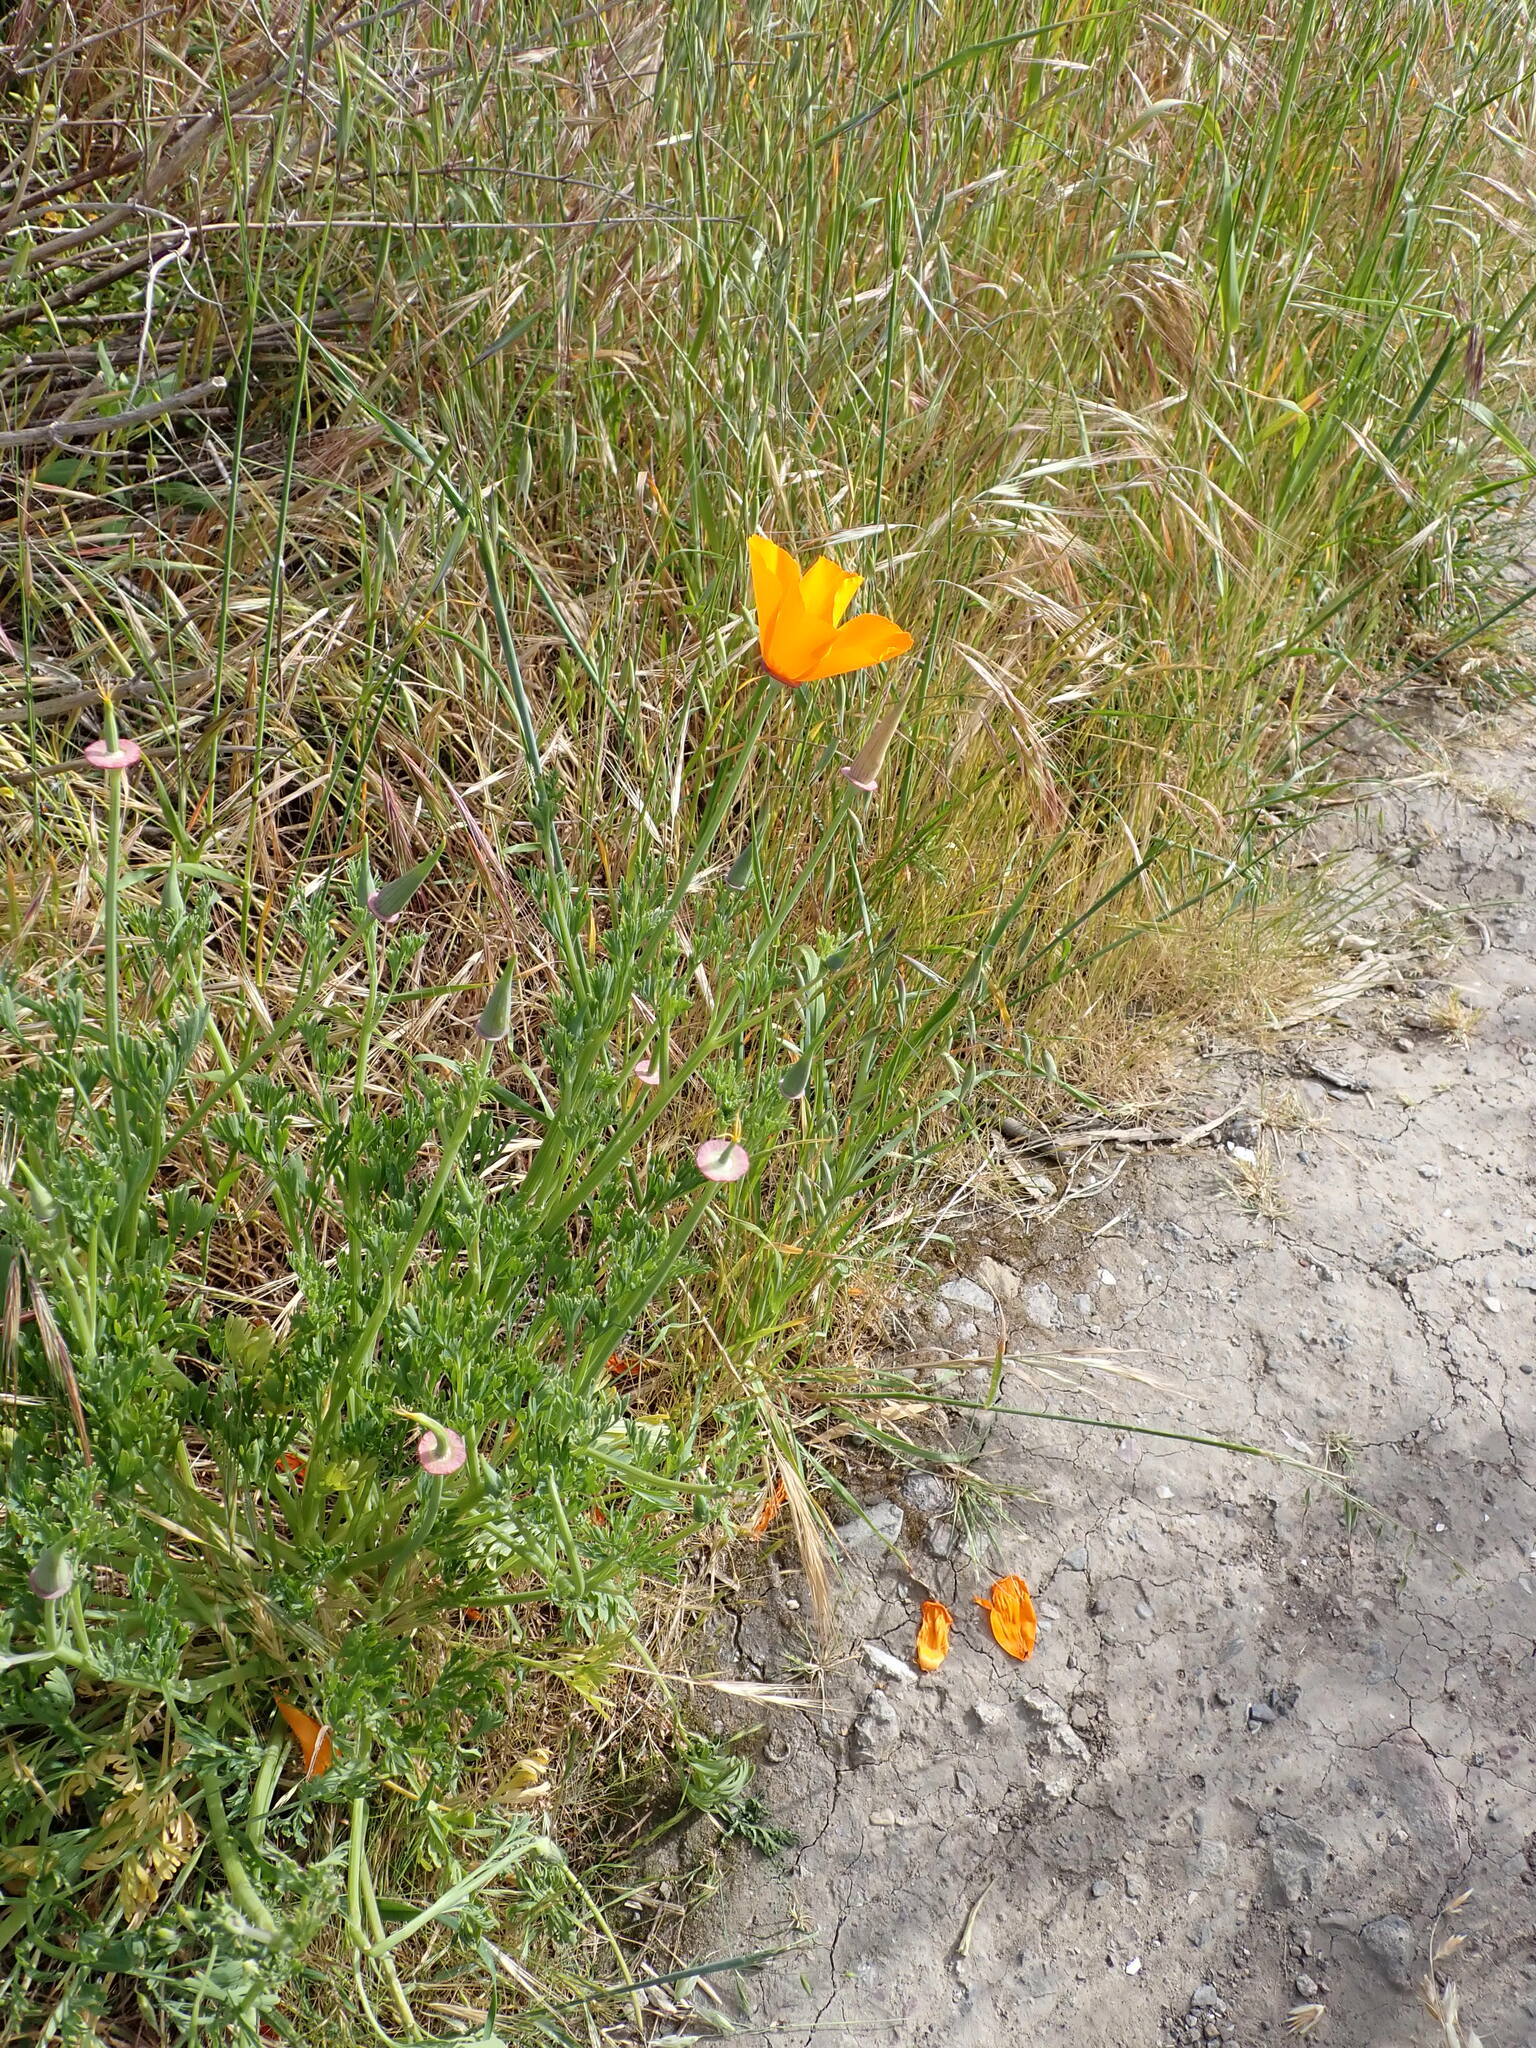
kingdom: Plantae
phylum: Tracheophyta
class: Magnoliopsida
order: Ranunculales
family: Papaveraceae
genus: Eschscholzia
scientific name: Eschscholzia californica
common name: California poppy
